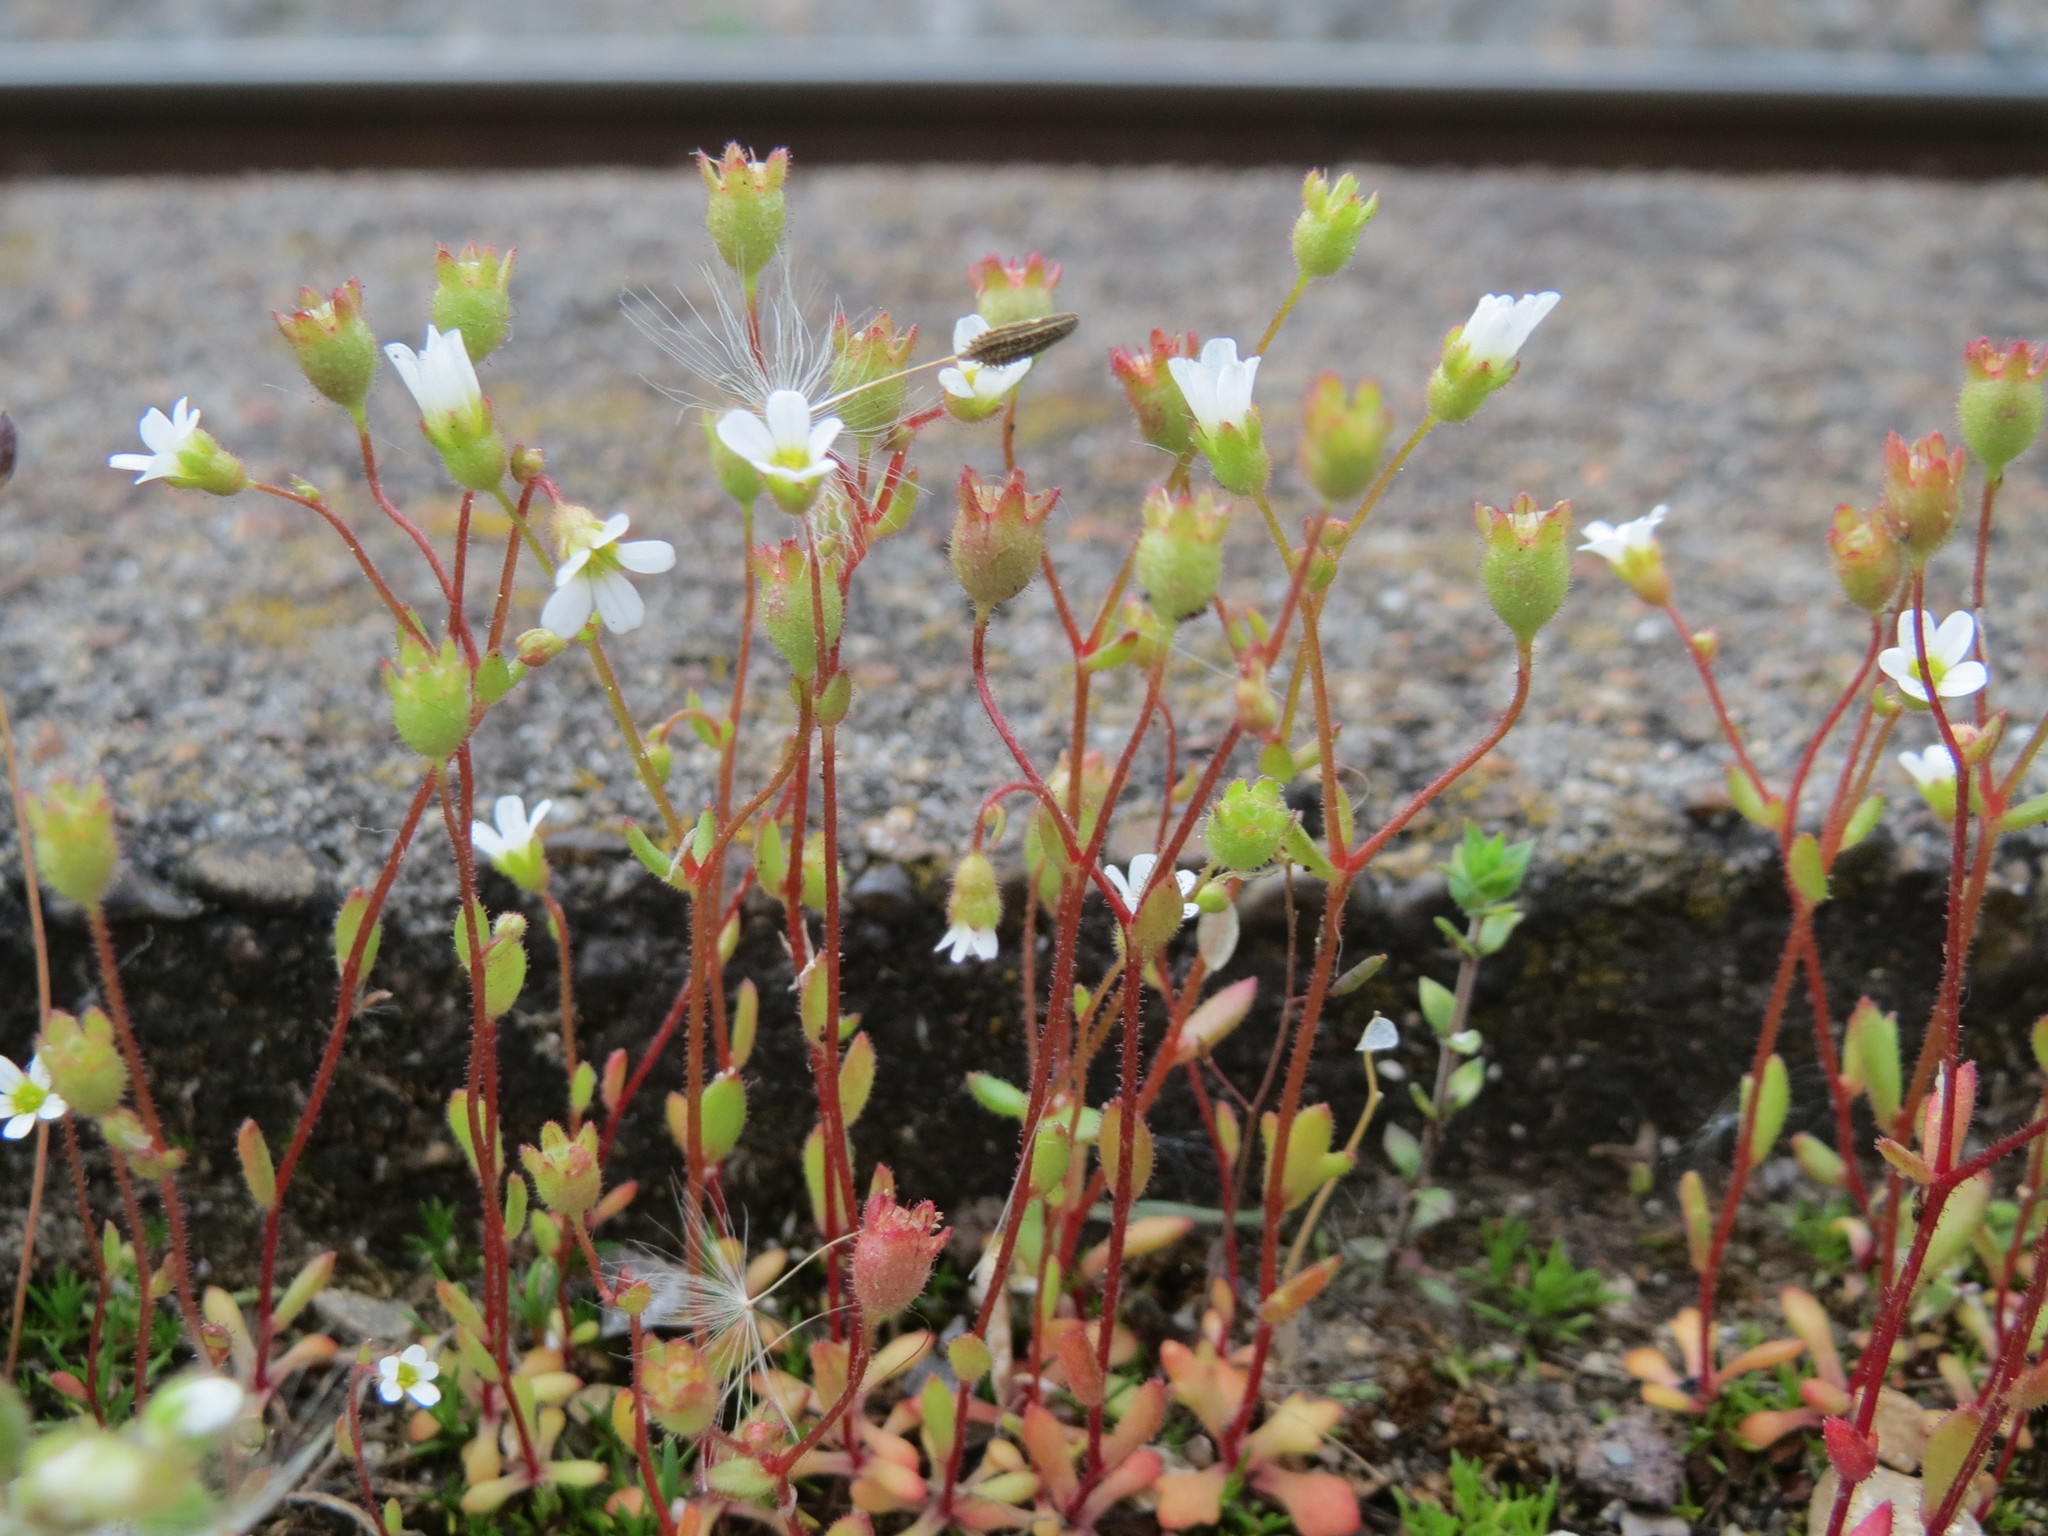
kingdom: Plantae
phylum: Tracheophyta
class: Magnoliopsida
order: Saxifragales
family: Saxifragaceae
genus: Saxifraga
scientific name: Saxifraga tridactylites
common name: Rue-leaved saxifrage
